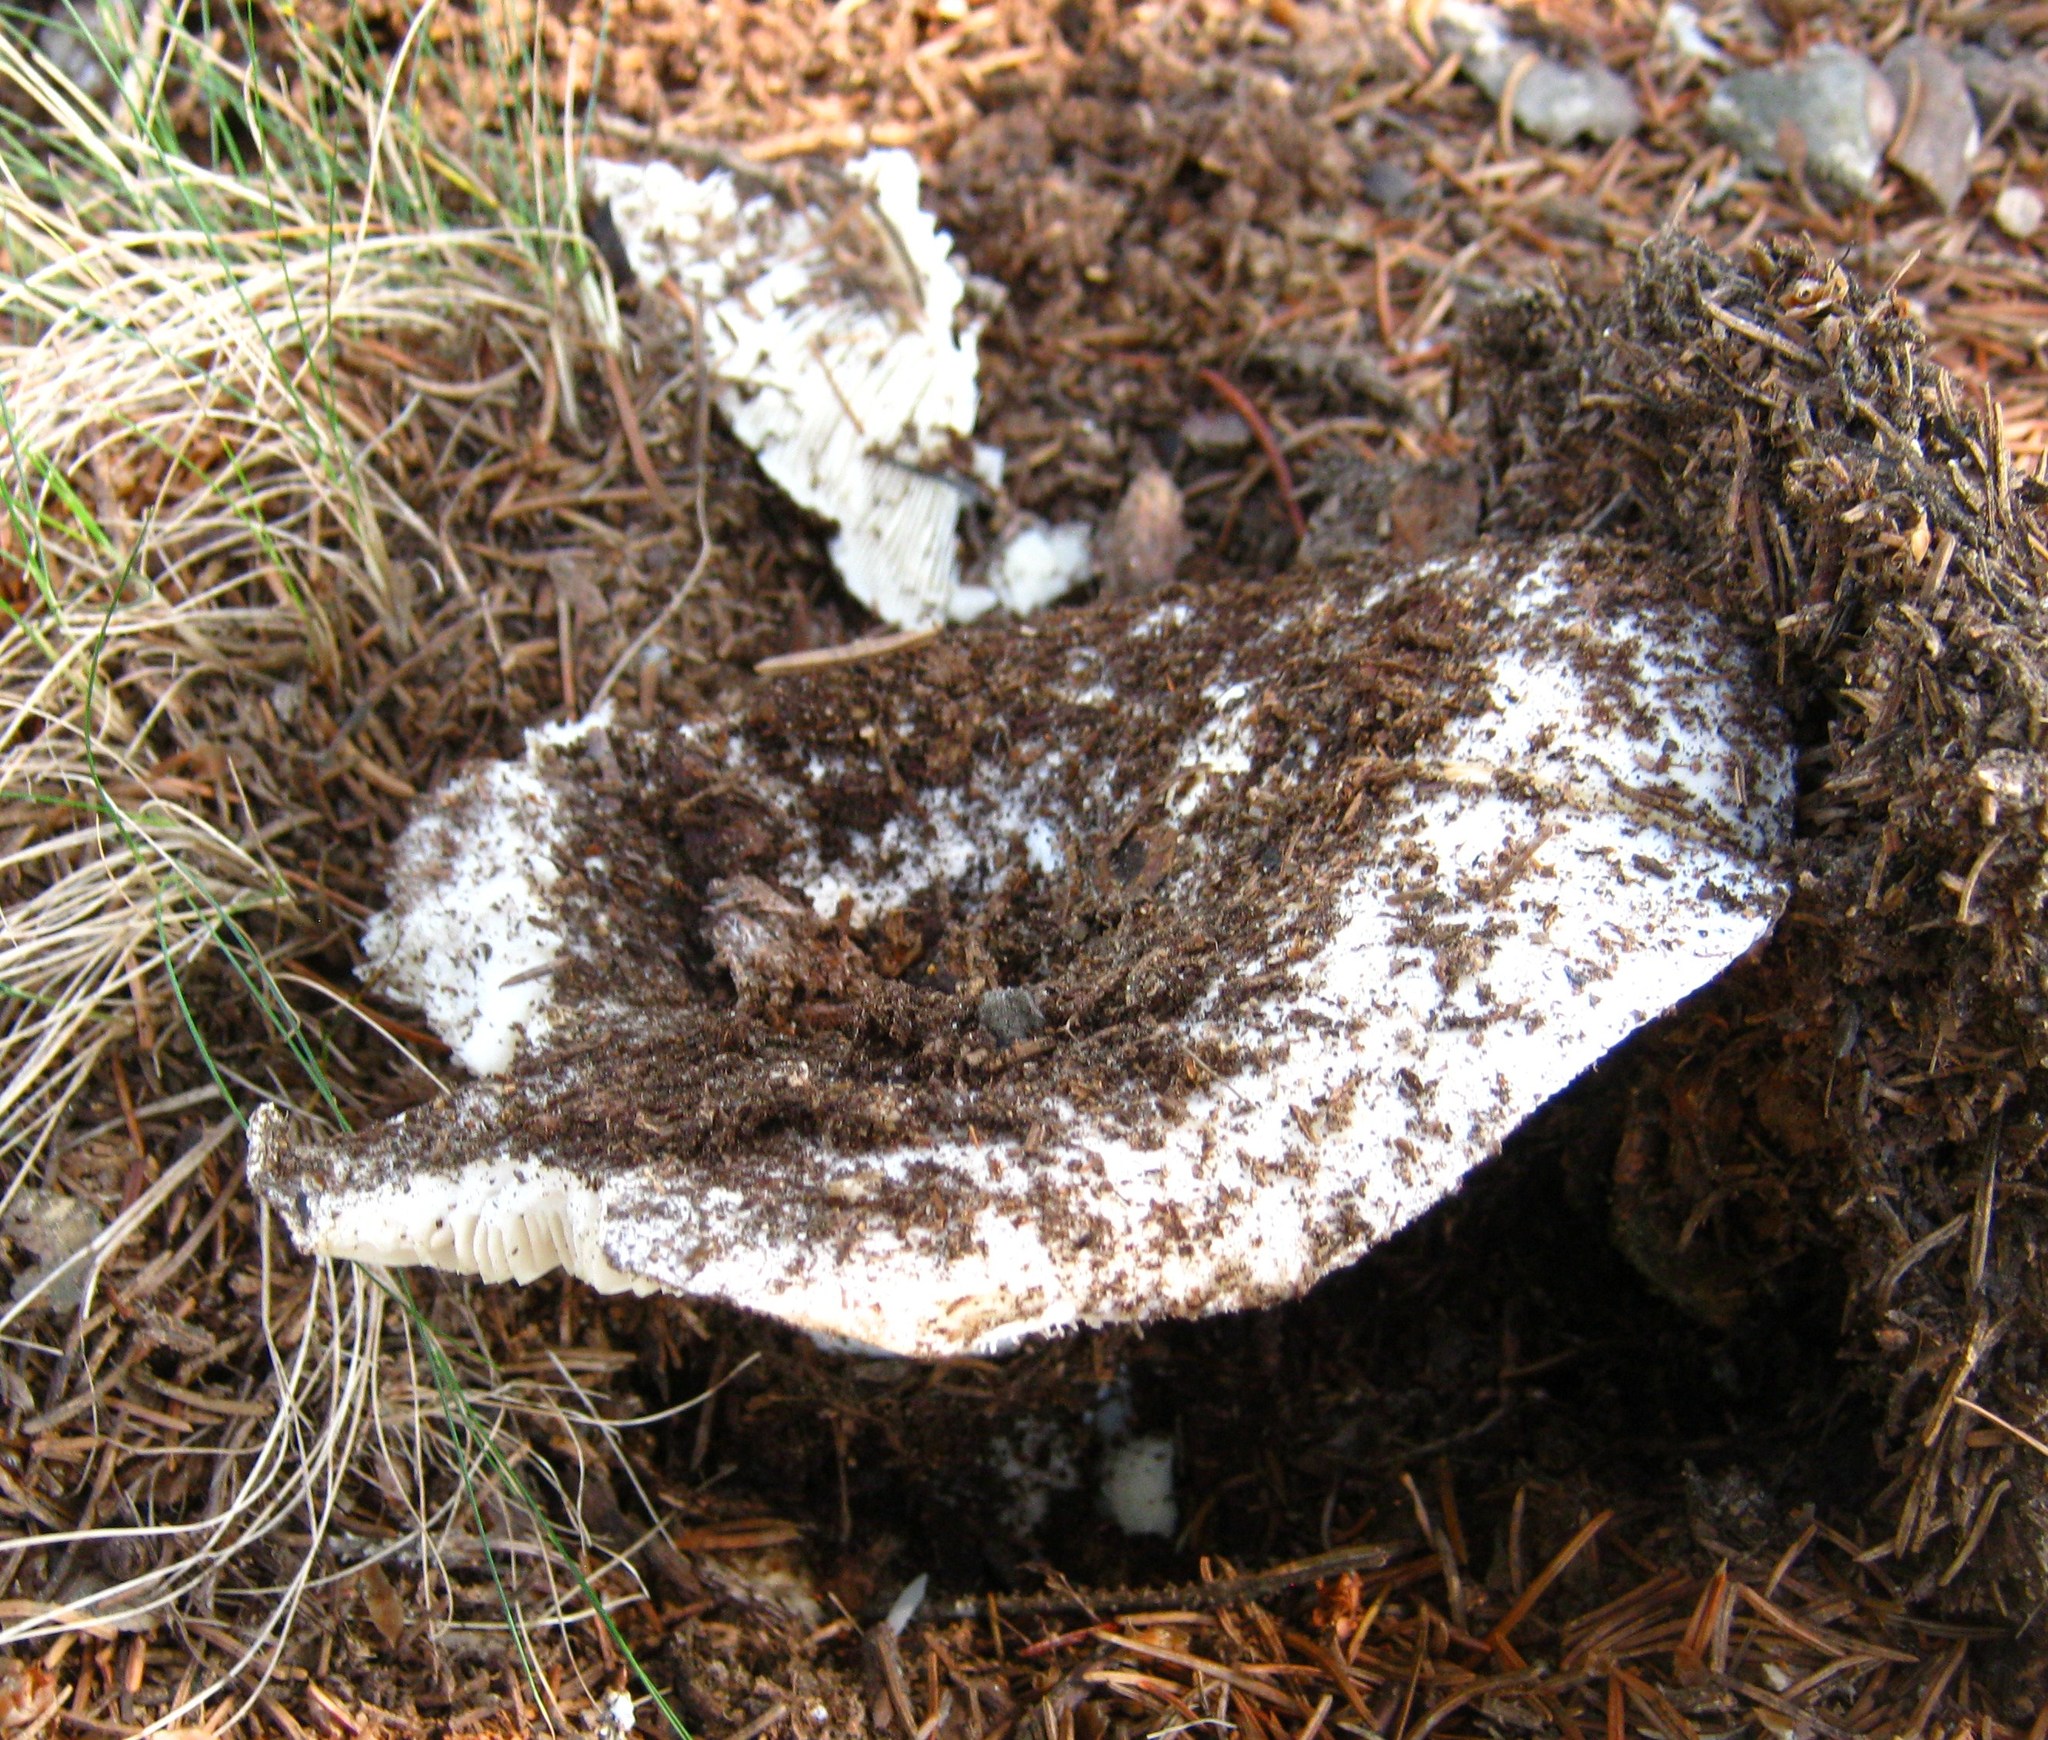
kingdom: Fungi
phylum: Basidiomycota
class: Agaricomycetes
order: Russulales
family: Russulaceae
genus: Russula
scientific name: Russula brevipes
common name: Short-stemmed russula
